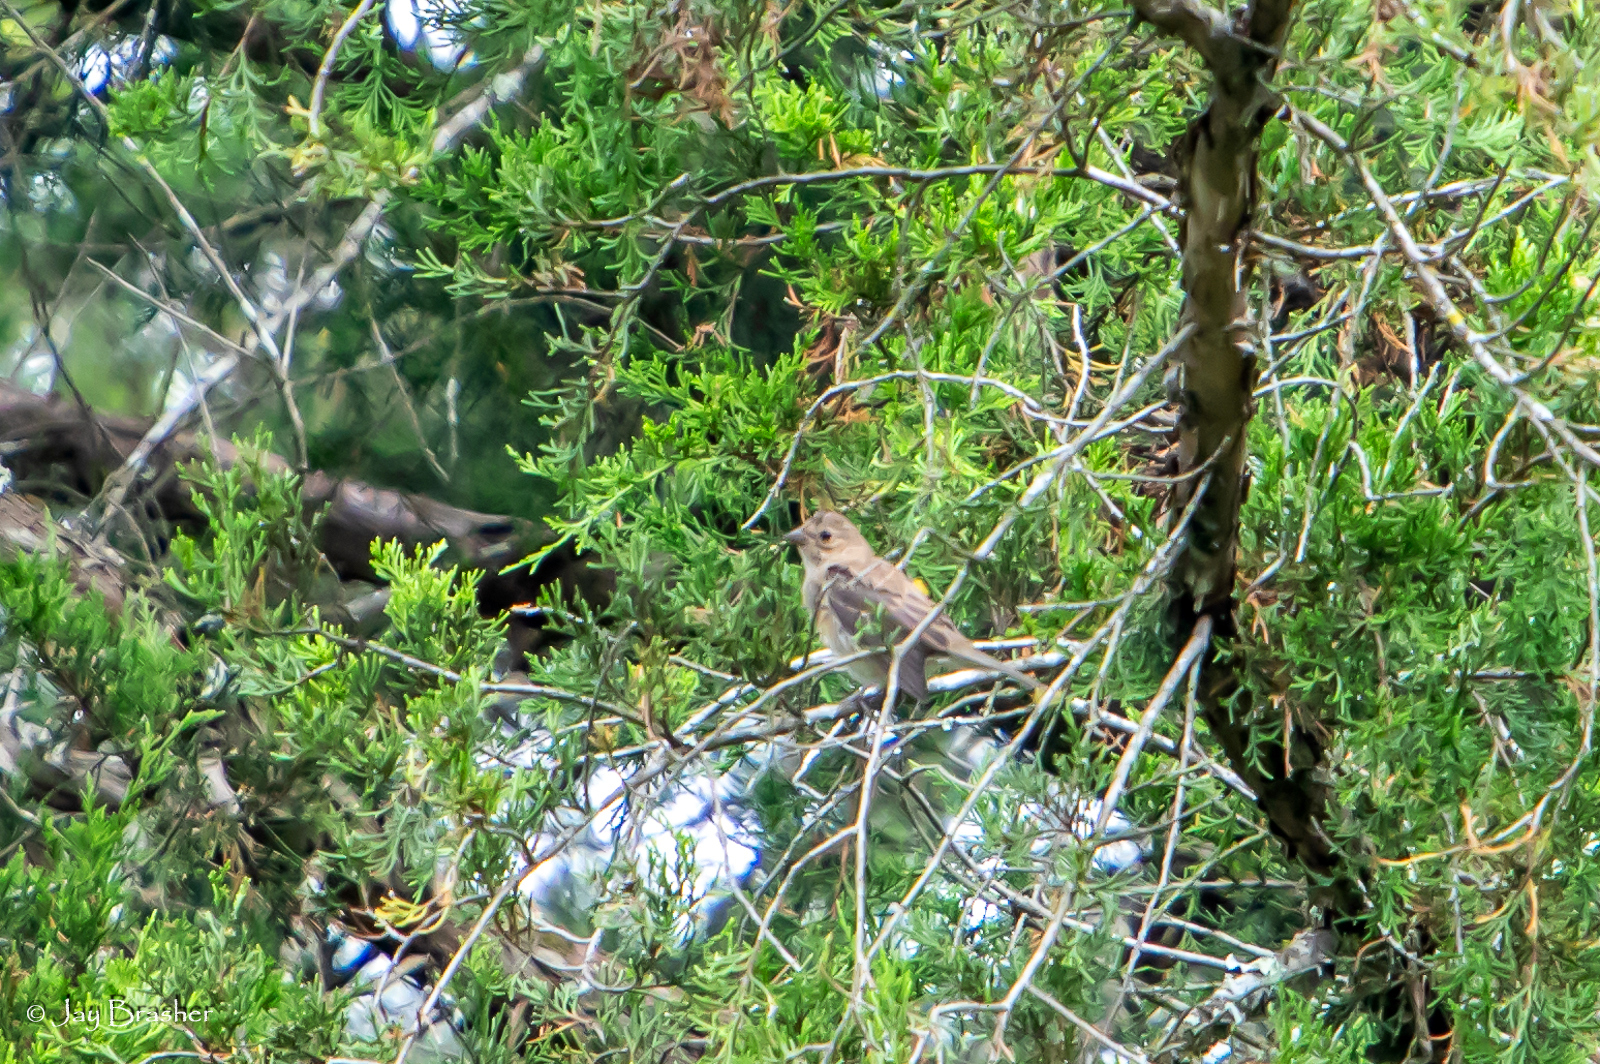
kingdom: Animalia
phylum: Chordata
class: Aves
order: Passeriformes
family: Cardinalidae
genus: Passerina
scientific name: Passerina cyanea
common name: Indigo bunting
